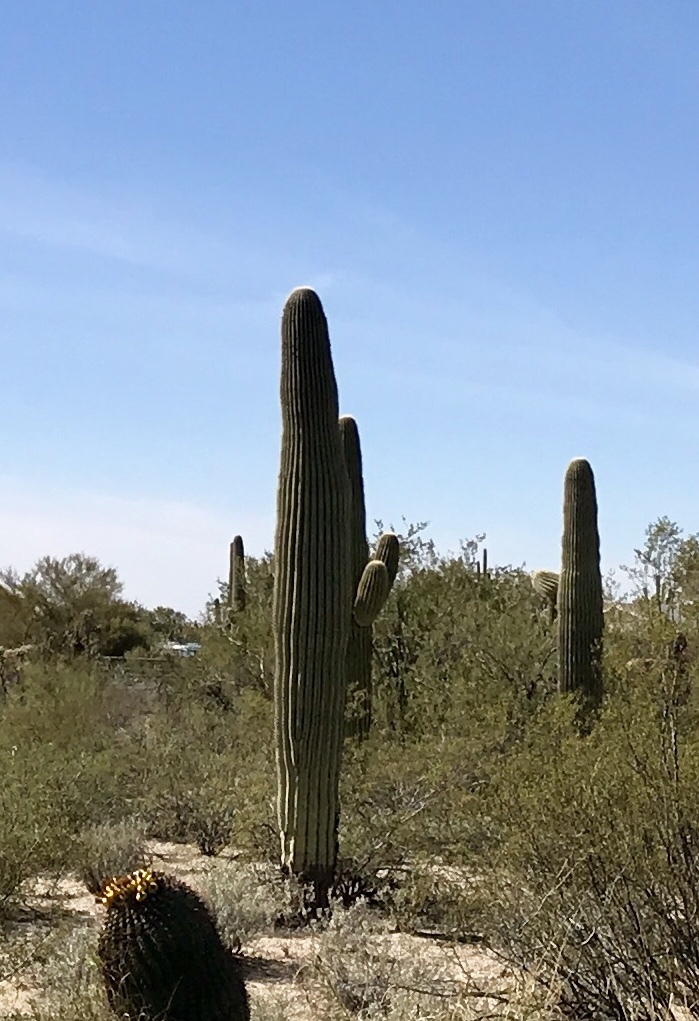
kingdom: Plantae
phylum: Tracheophyta
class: Magnoliopsida
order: Caryophyllales
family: Cactaceae
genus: Carnegiea
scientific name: Carnegiea gigantea
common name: Saguaro
